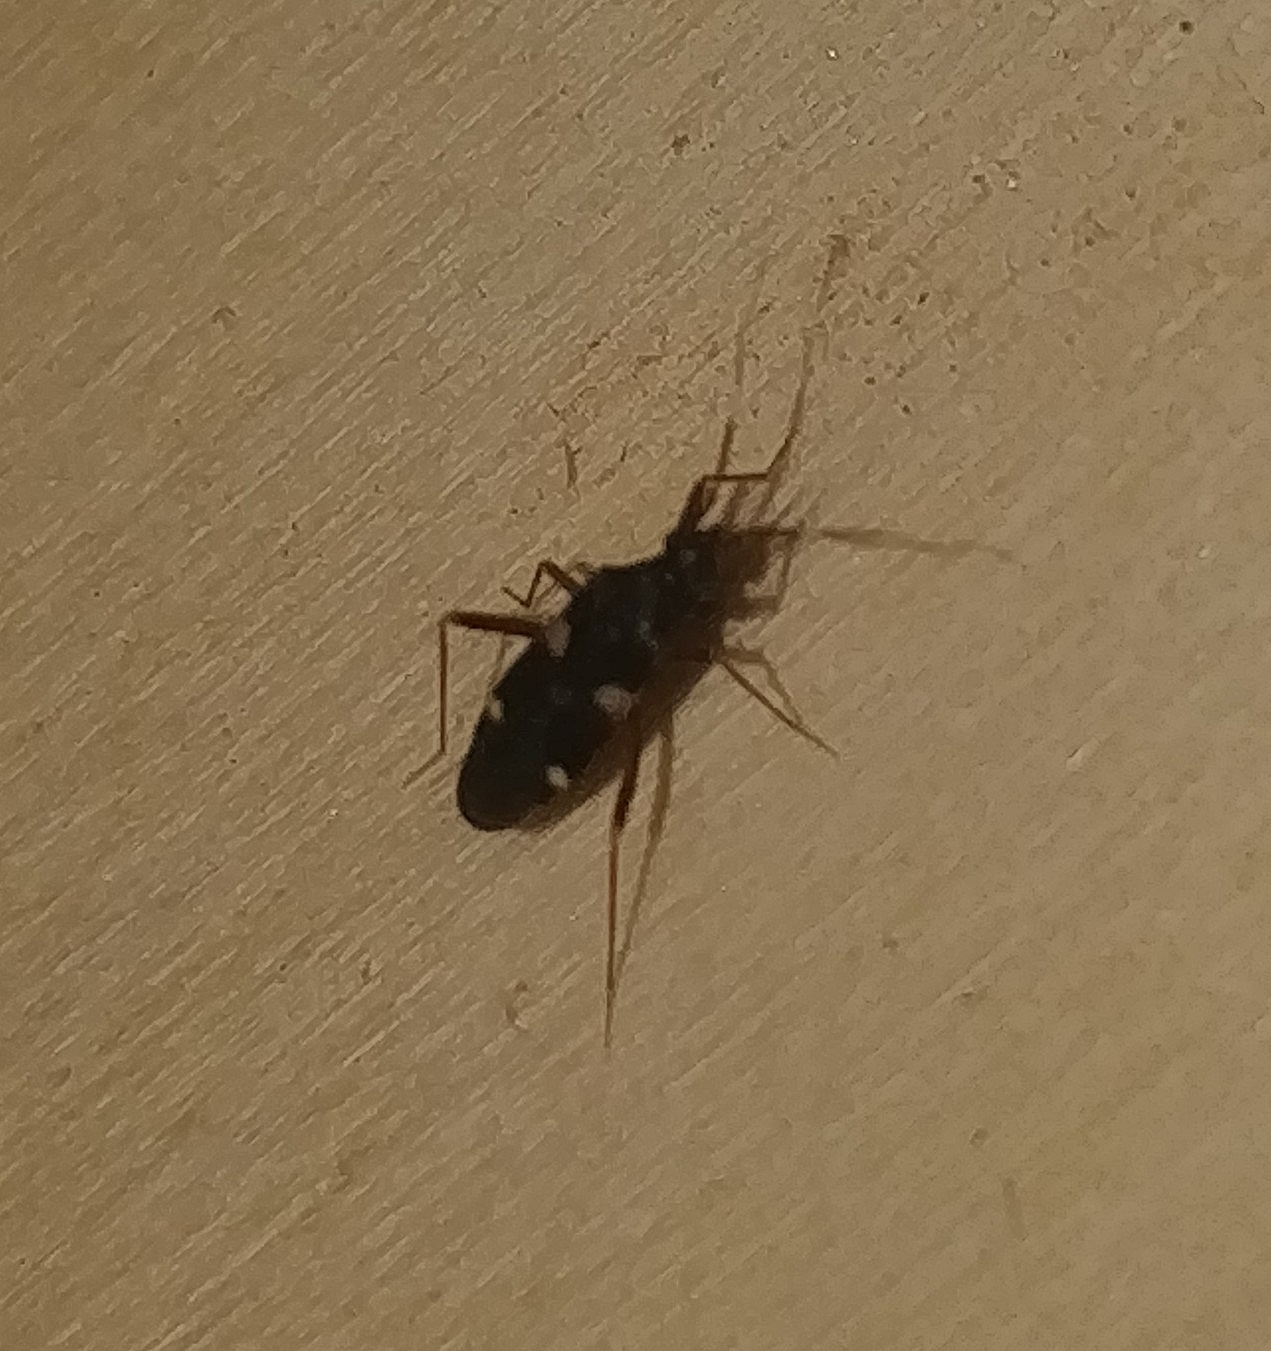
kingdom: Animalia
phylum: Arthropoda
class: Insecta
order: Hemiptera
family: Rhyparochromidae
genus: Noualhieria
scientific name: Noualhieria quadripunctata
